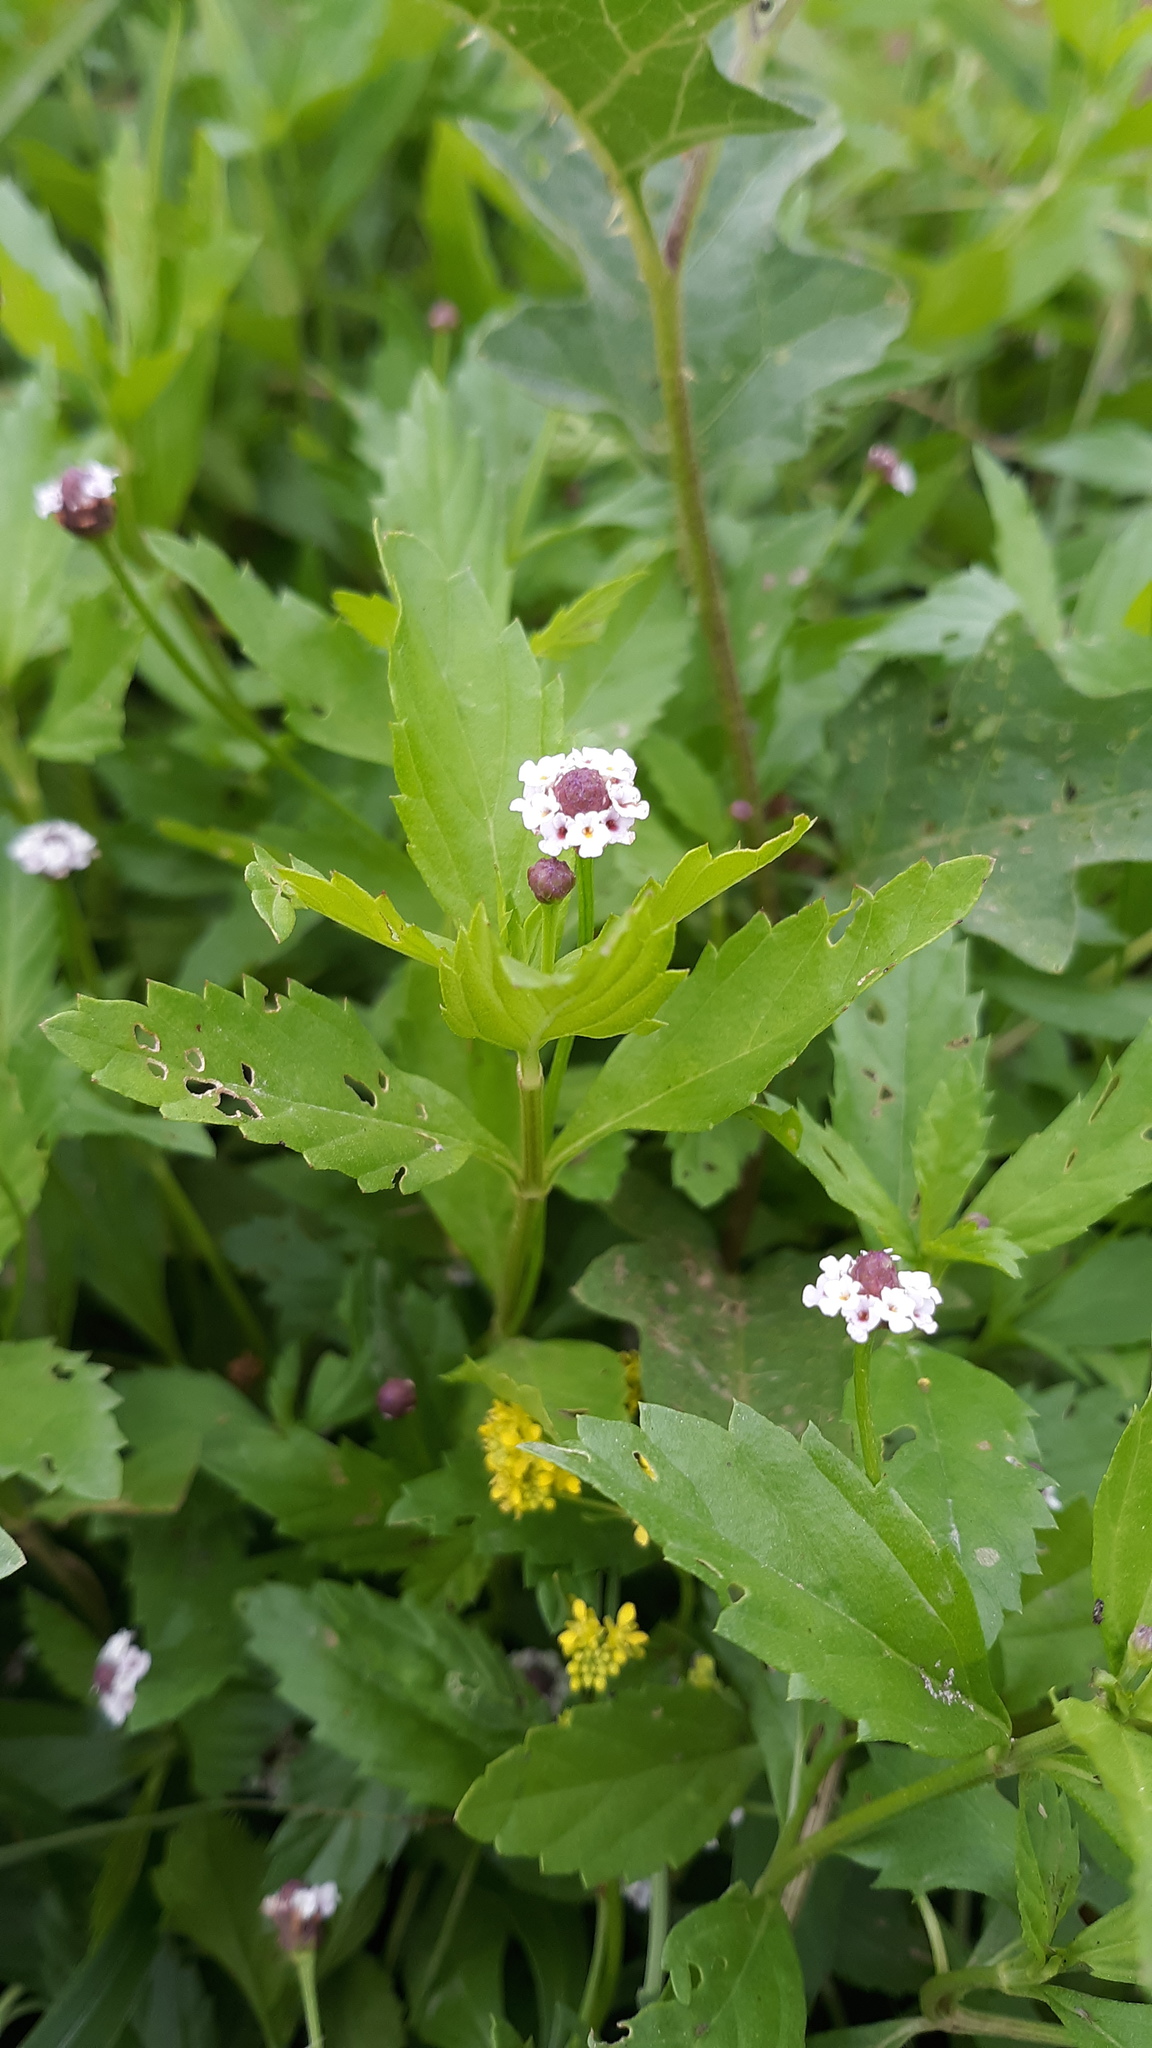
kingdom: Plantae
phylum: Tracheophyta
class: Magnoliopsida
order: Lamiales
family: Verbenaceae
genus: Phyla
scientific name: Phyla lanceolata
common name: Northern fogfruit
